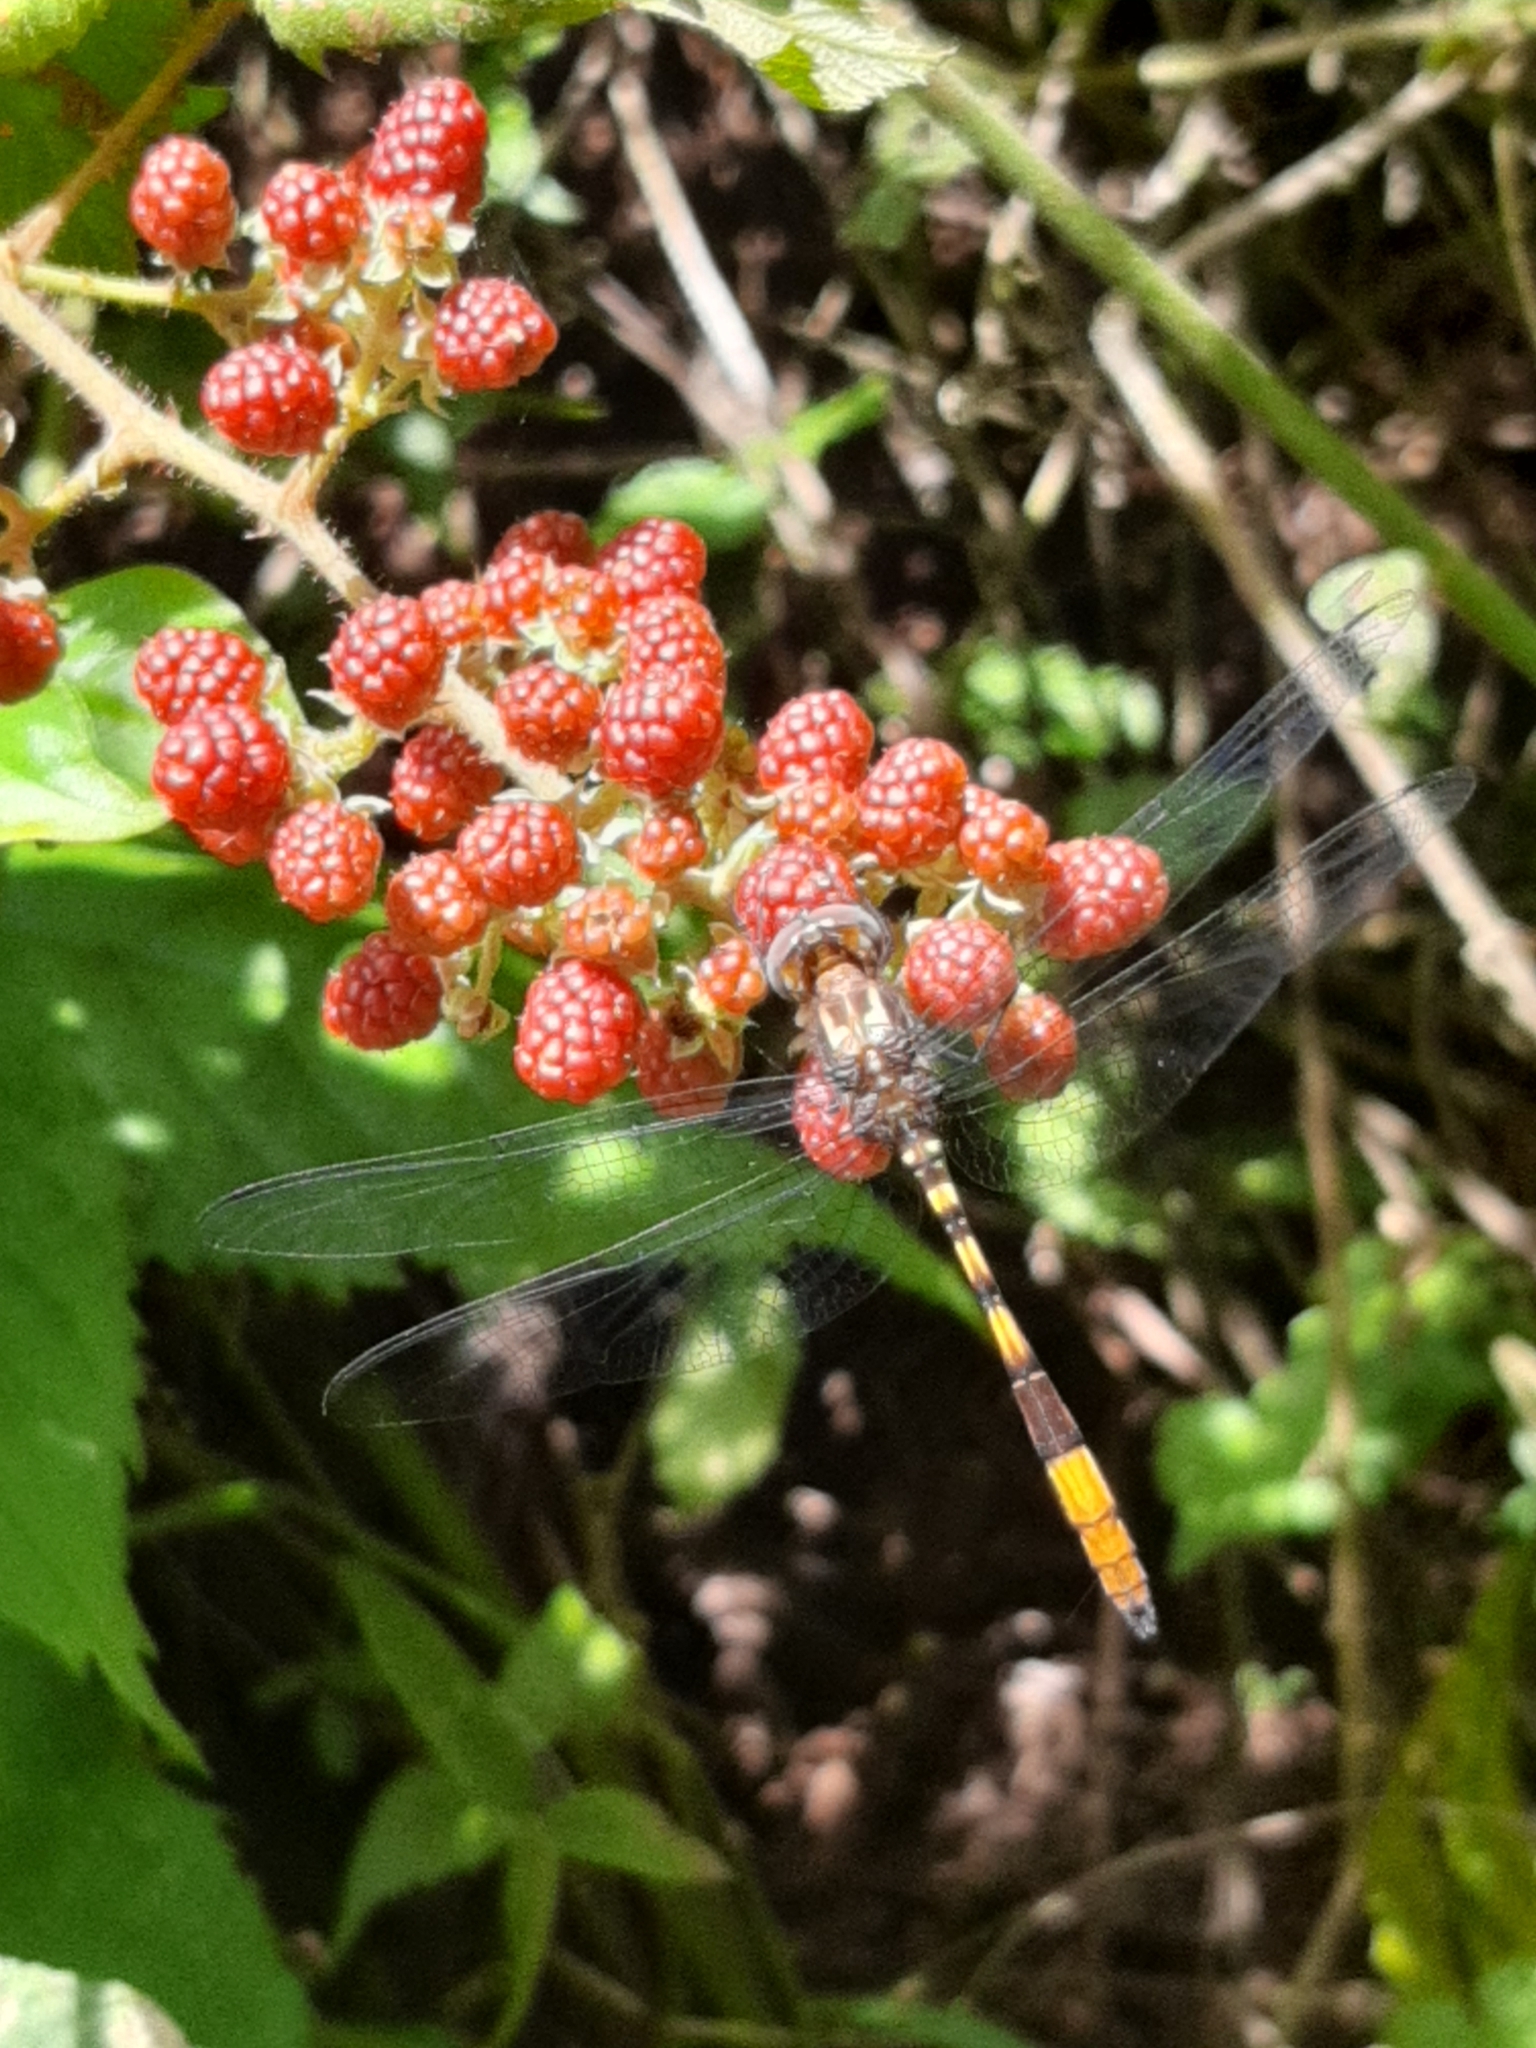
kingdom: Animalia
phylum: Arthropoda
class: Insecta
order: Odonata
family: Libellulidae
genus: Brechmorhoga
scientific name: Brechmorhoga rapax
